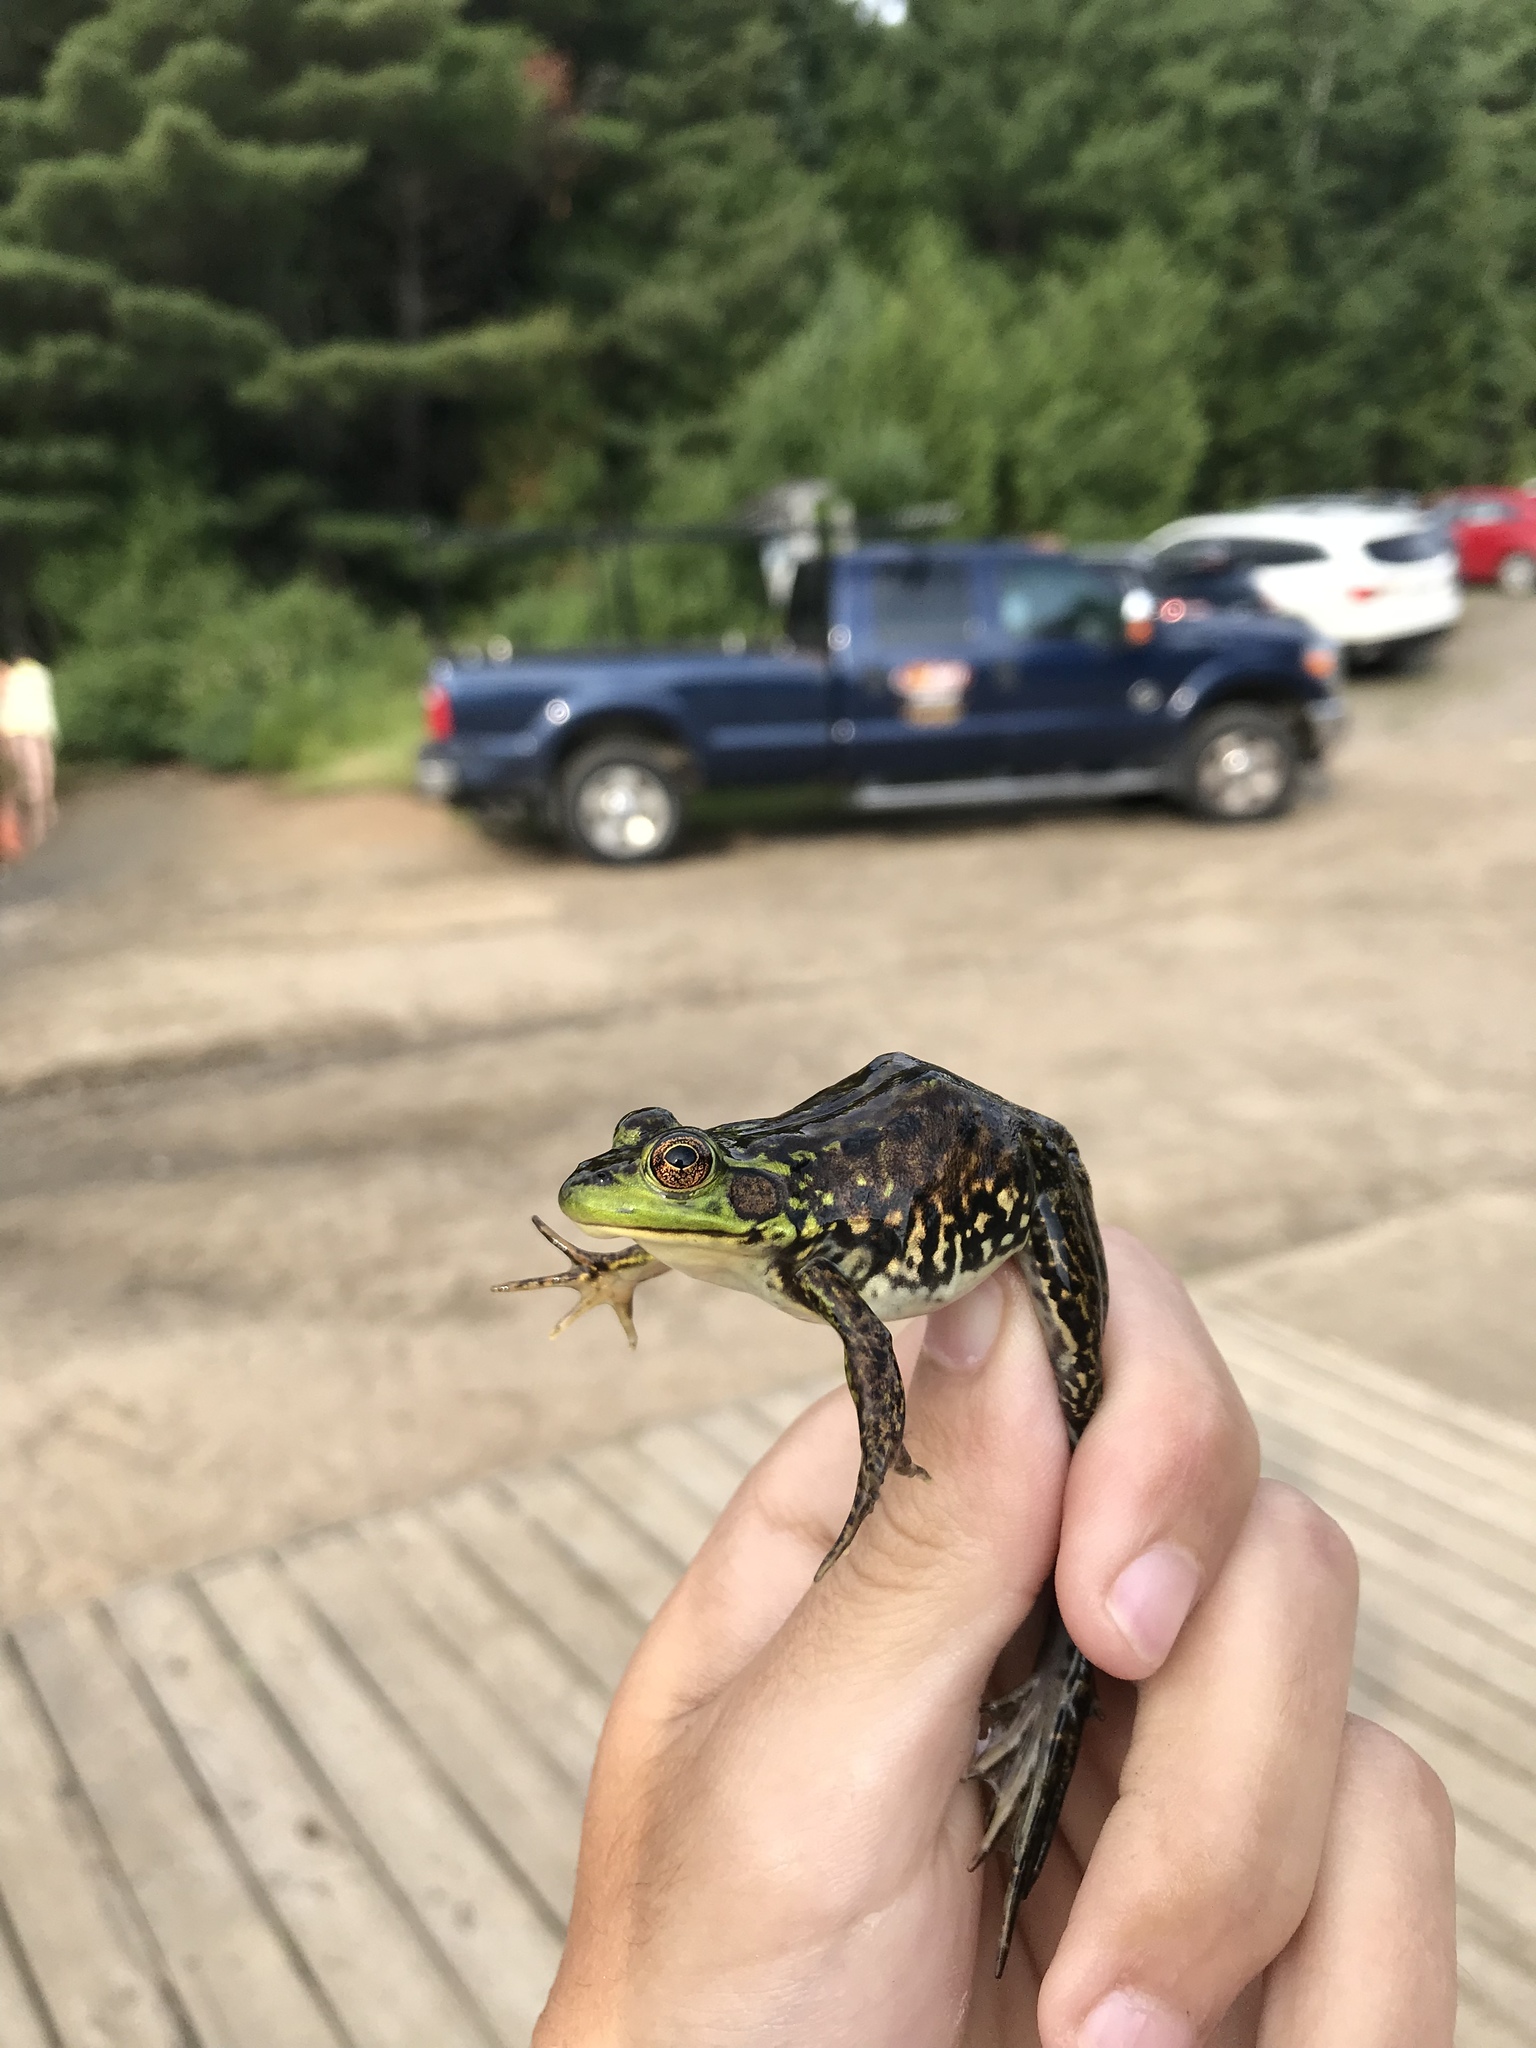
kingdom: Animalia
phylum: Chordata
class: Amphibia
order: Anura
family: Ranidae
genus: Lithobates
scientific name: Lithobates septentrionalis
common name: Mink frog
